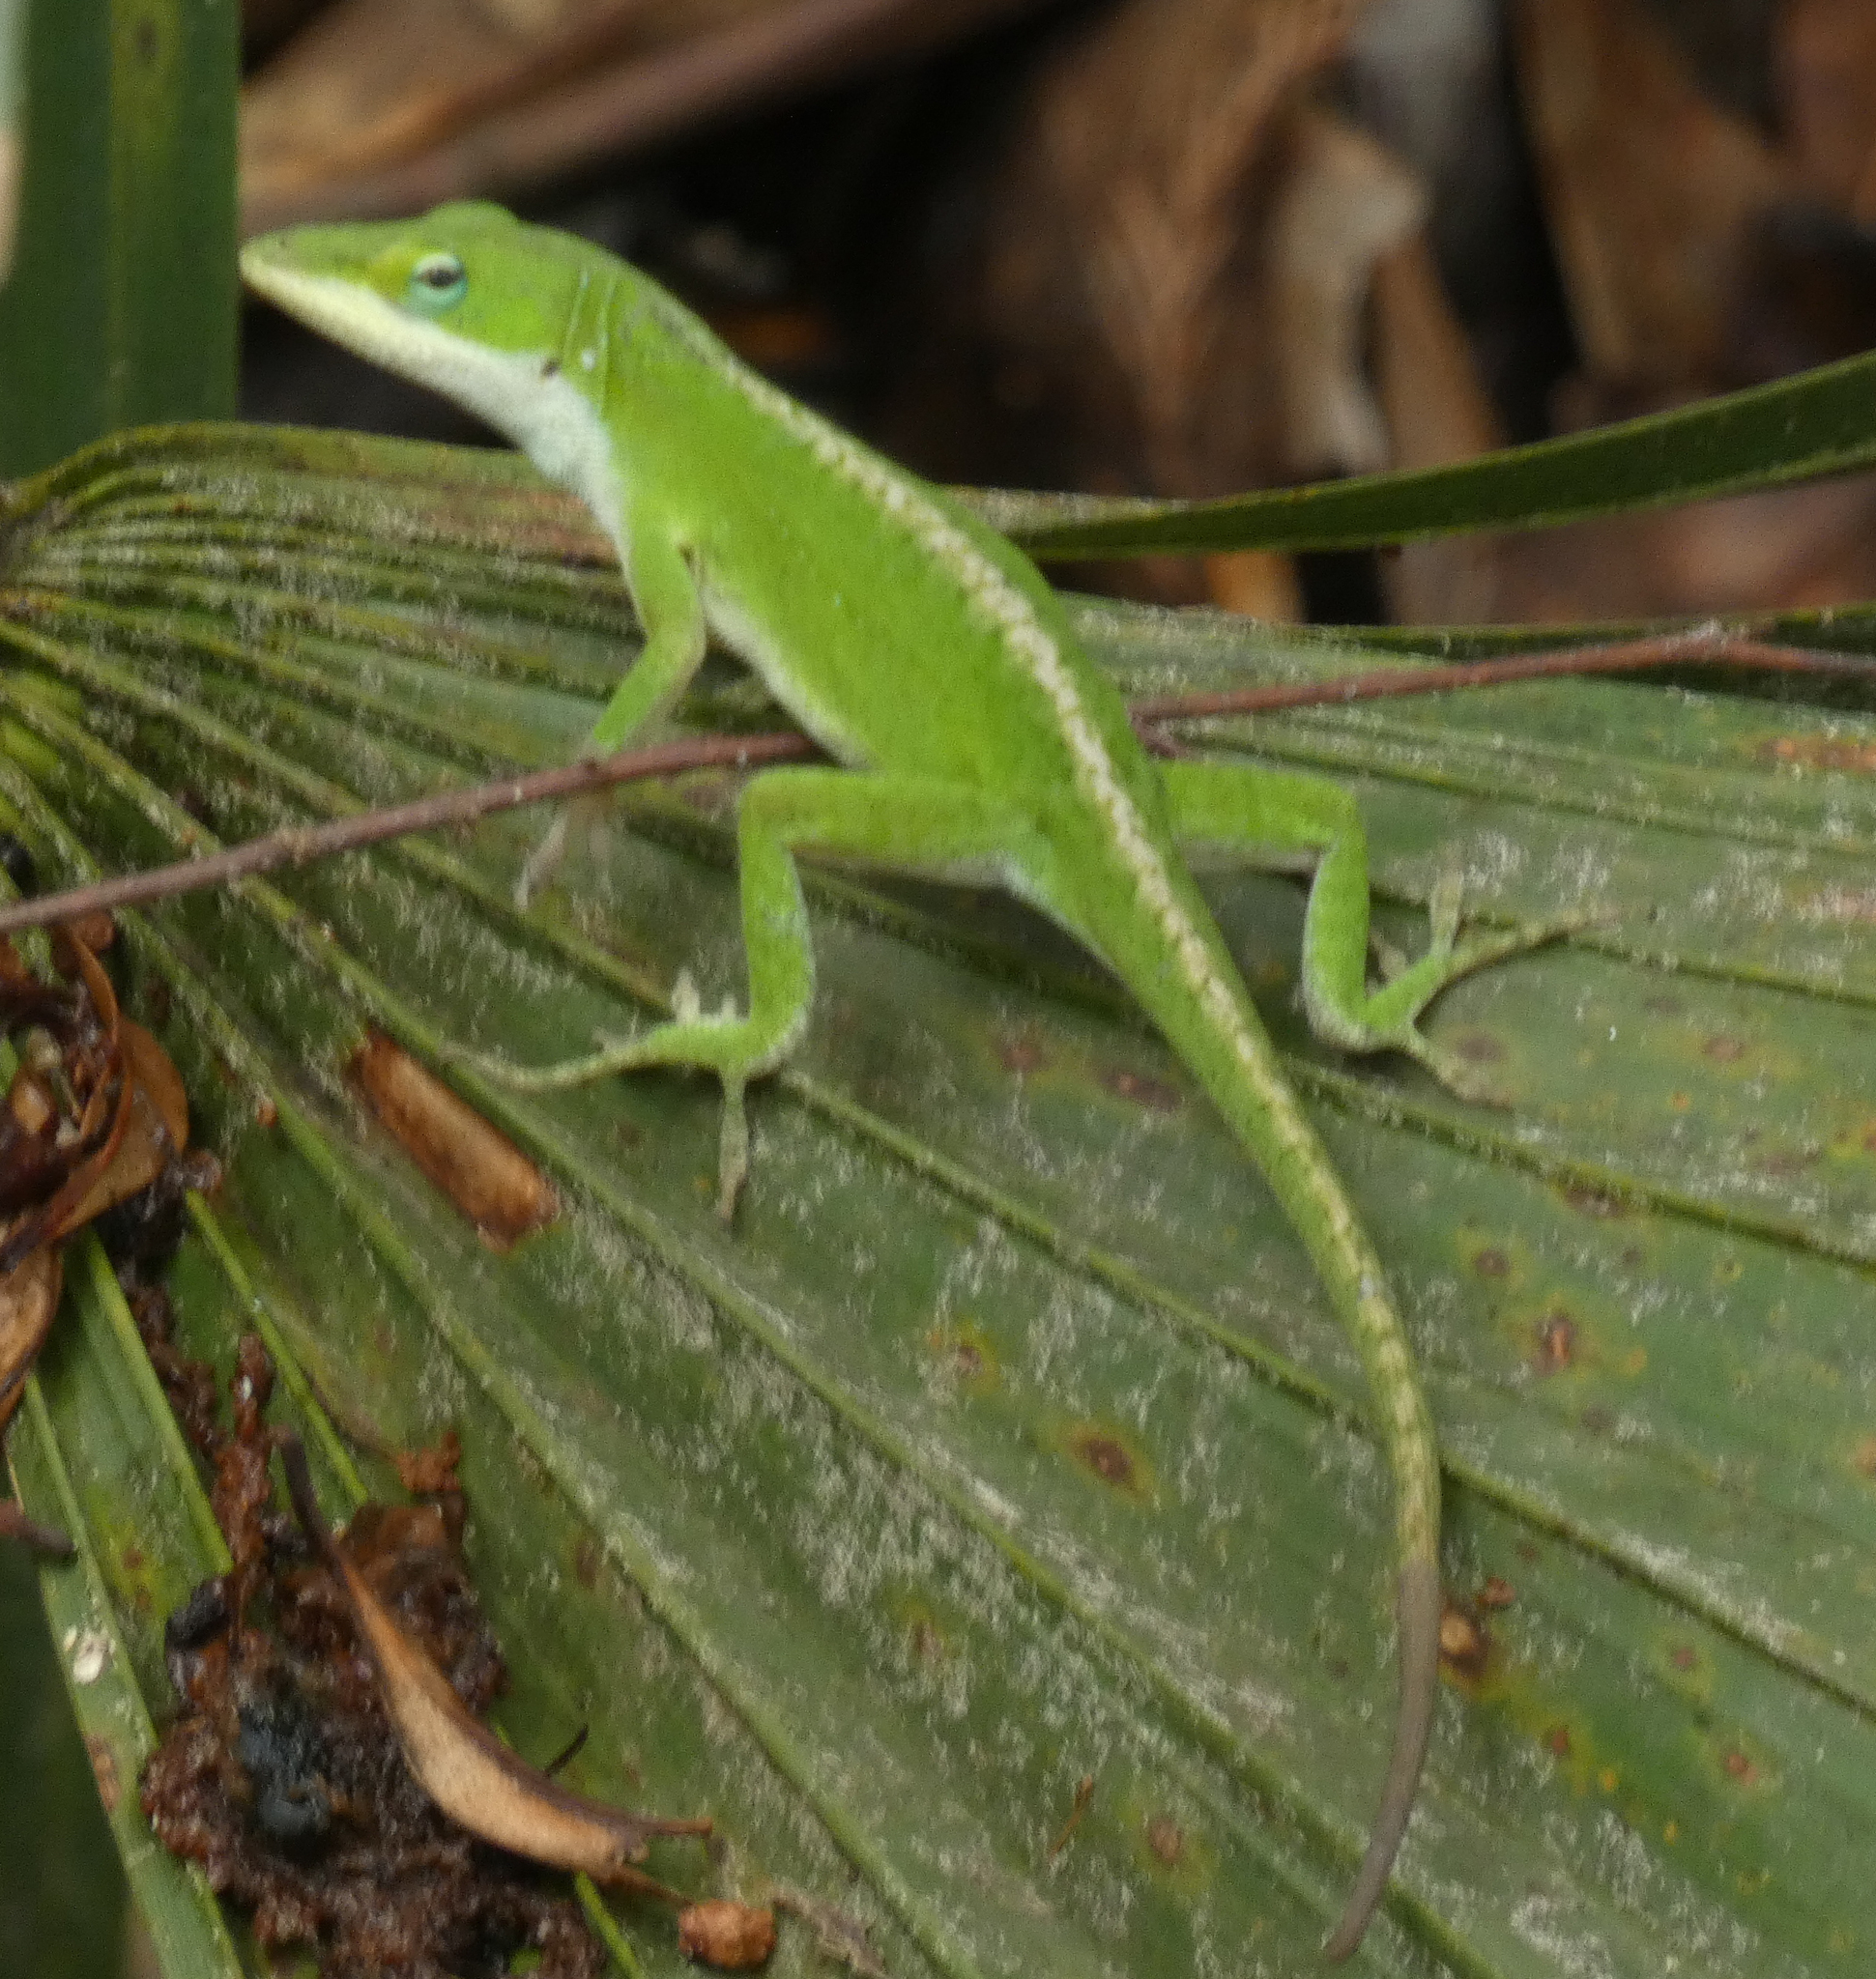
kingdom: Animalia
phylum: Chordata
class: Squamata
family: Dactyloidae
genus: Anolis
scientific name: Anolis carolinensis
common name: Green anole
